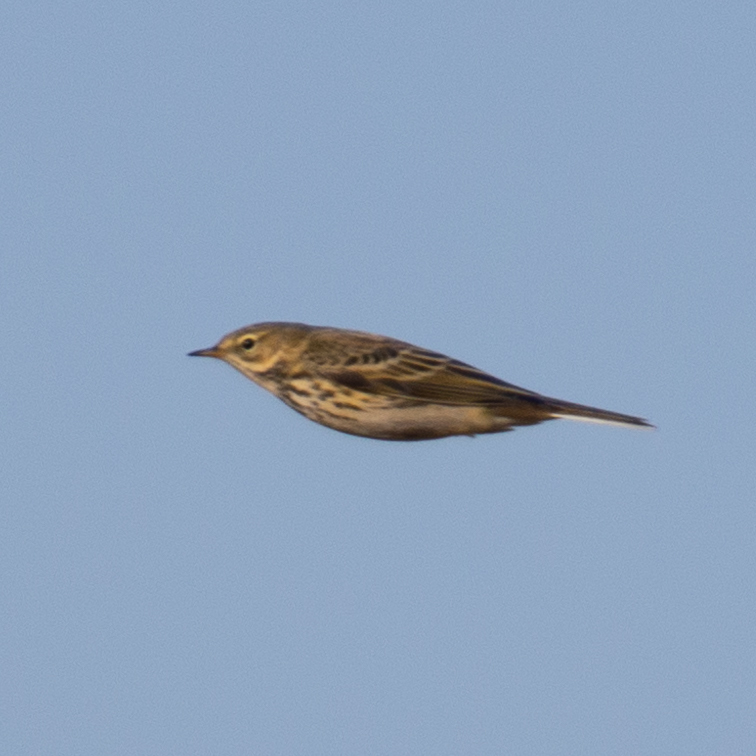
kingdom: Animalia
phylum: Chordata
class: Aves
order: Passeriformes
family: Motacillidae
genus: Anthus
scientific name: Anthus pratensis
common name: Meadow pipit
